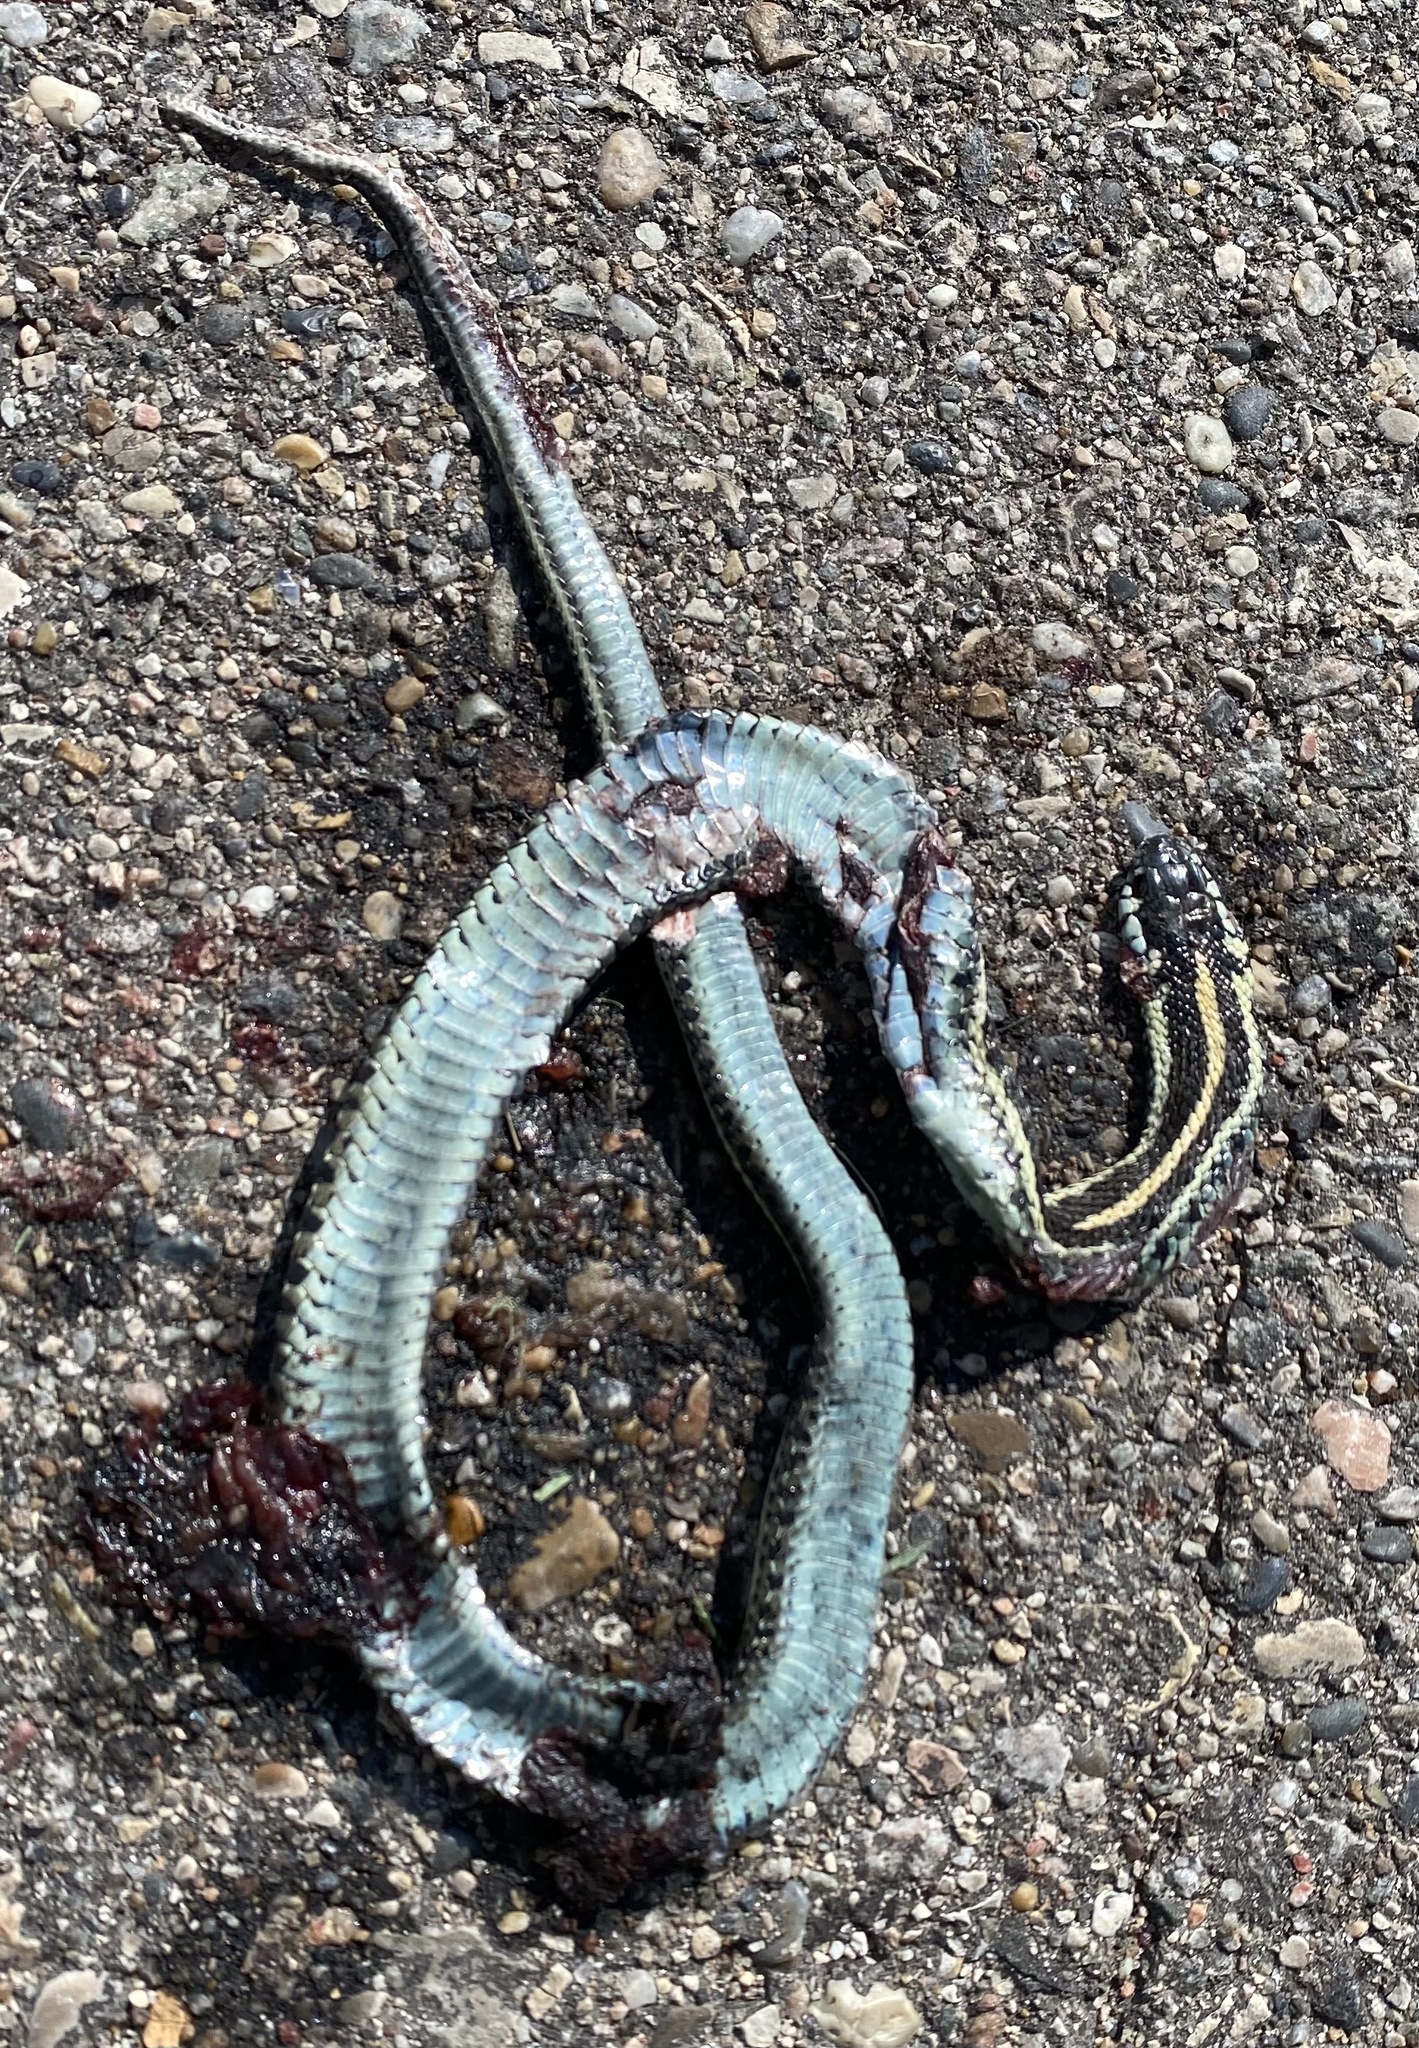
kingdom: Animalia
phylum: Chordata
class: Squamata
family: Colubridae
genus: Thamnophis
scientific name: Thamnophis radix
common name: Plains garter snake
